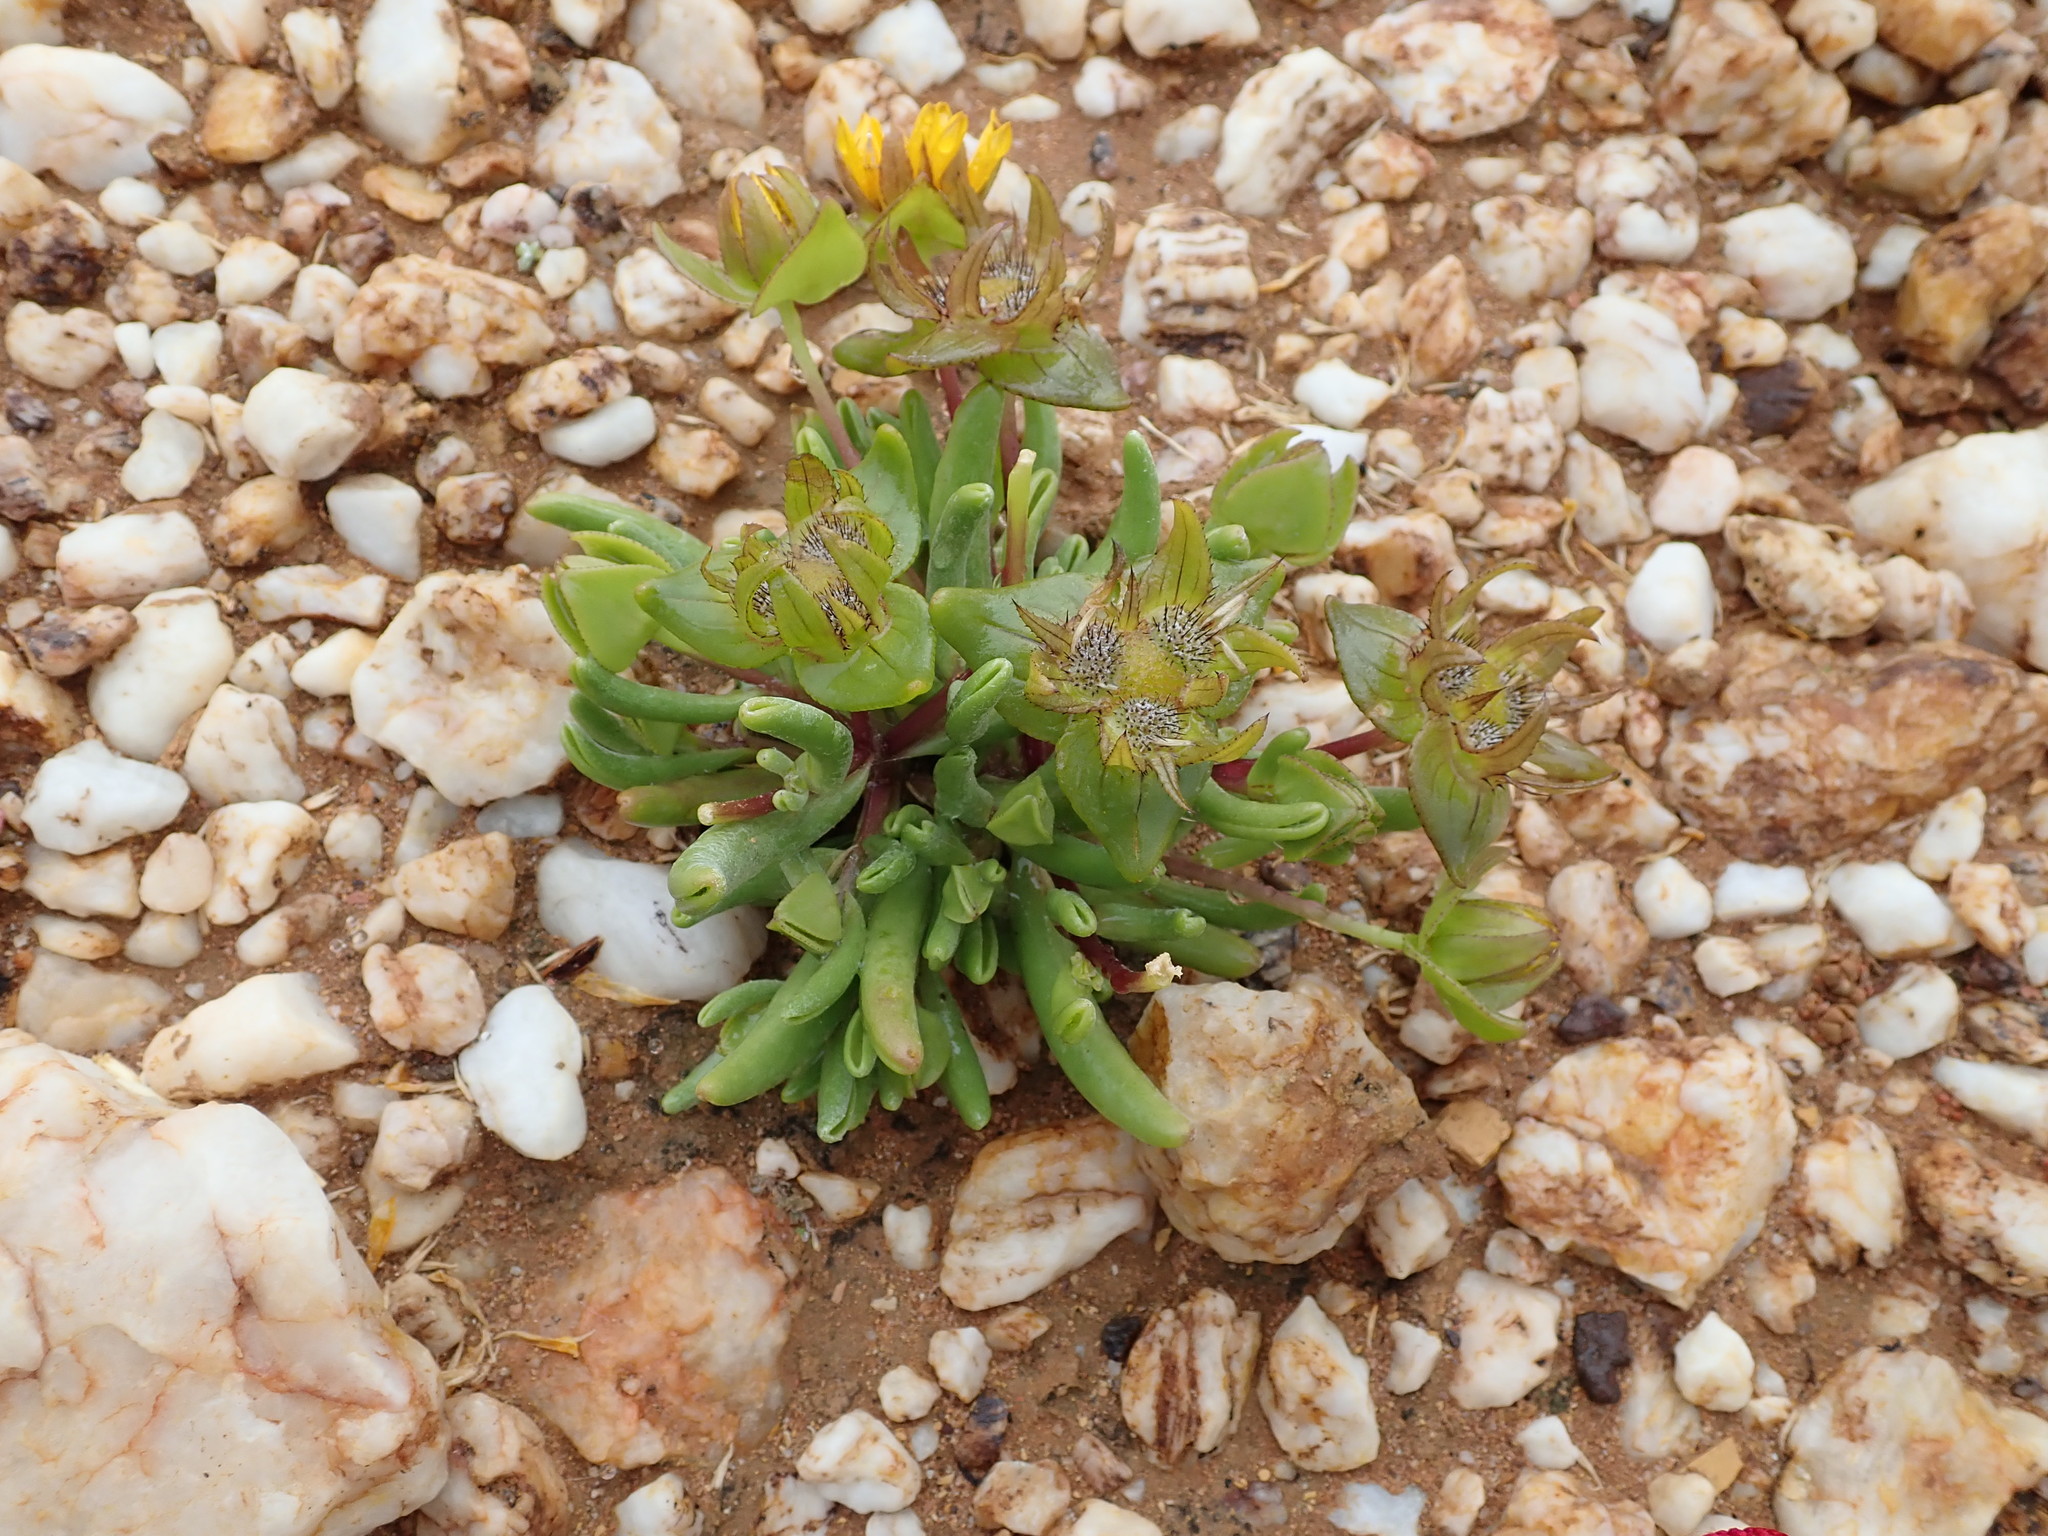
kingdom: Plantae
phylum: Tracheophyta
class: Magnoliopsida
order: Asterales
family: Asteraceae
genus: Didelta
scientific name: Didelta carnosa
